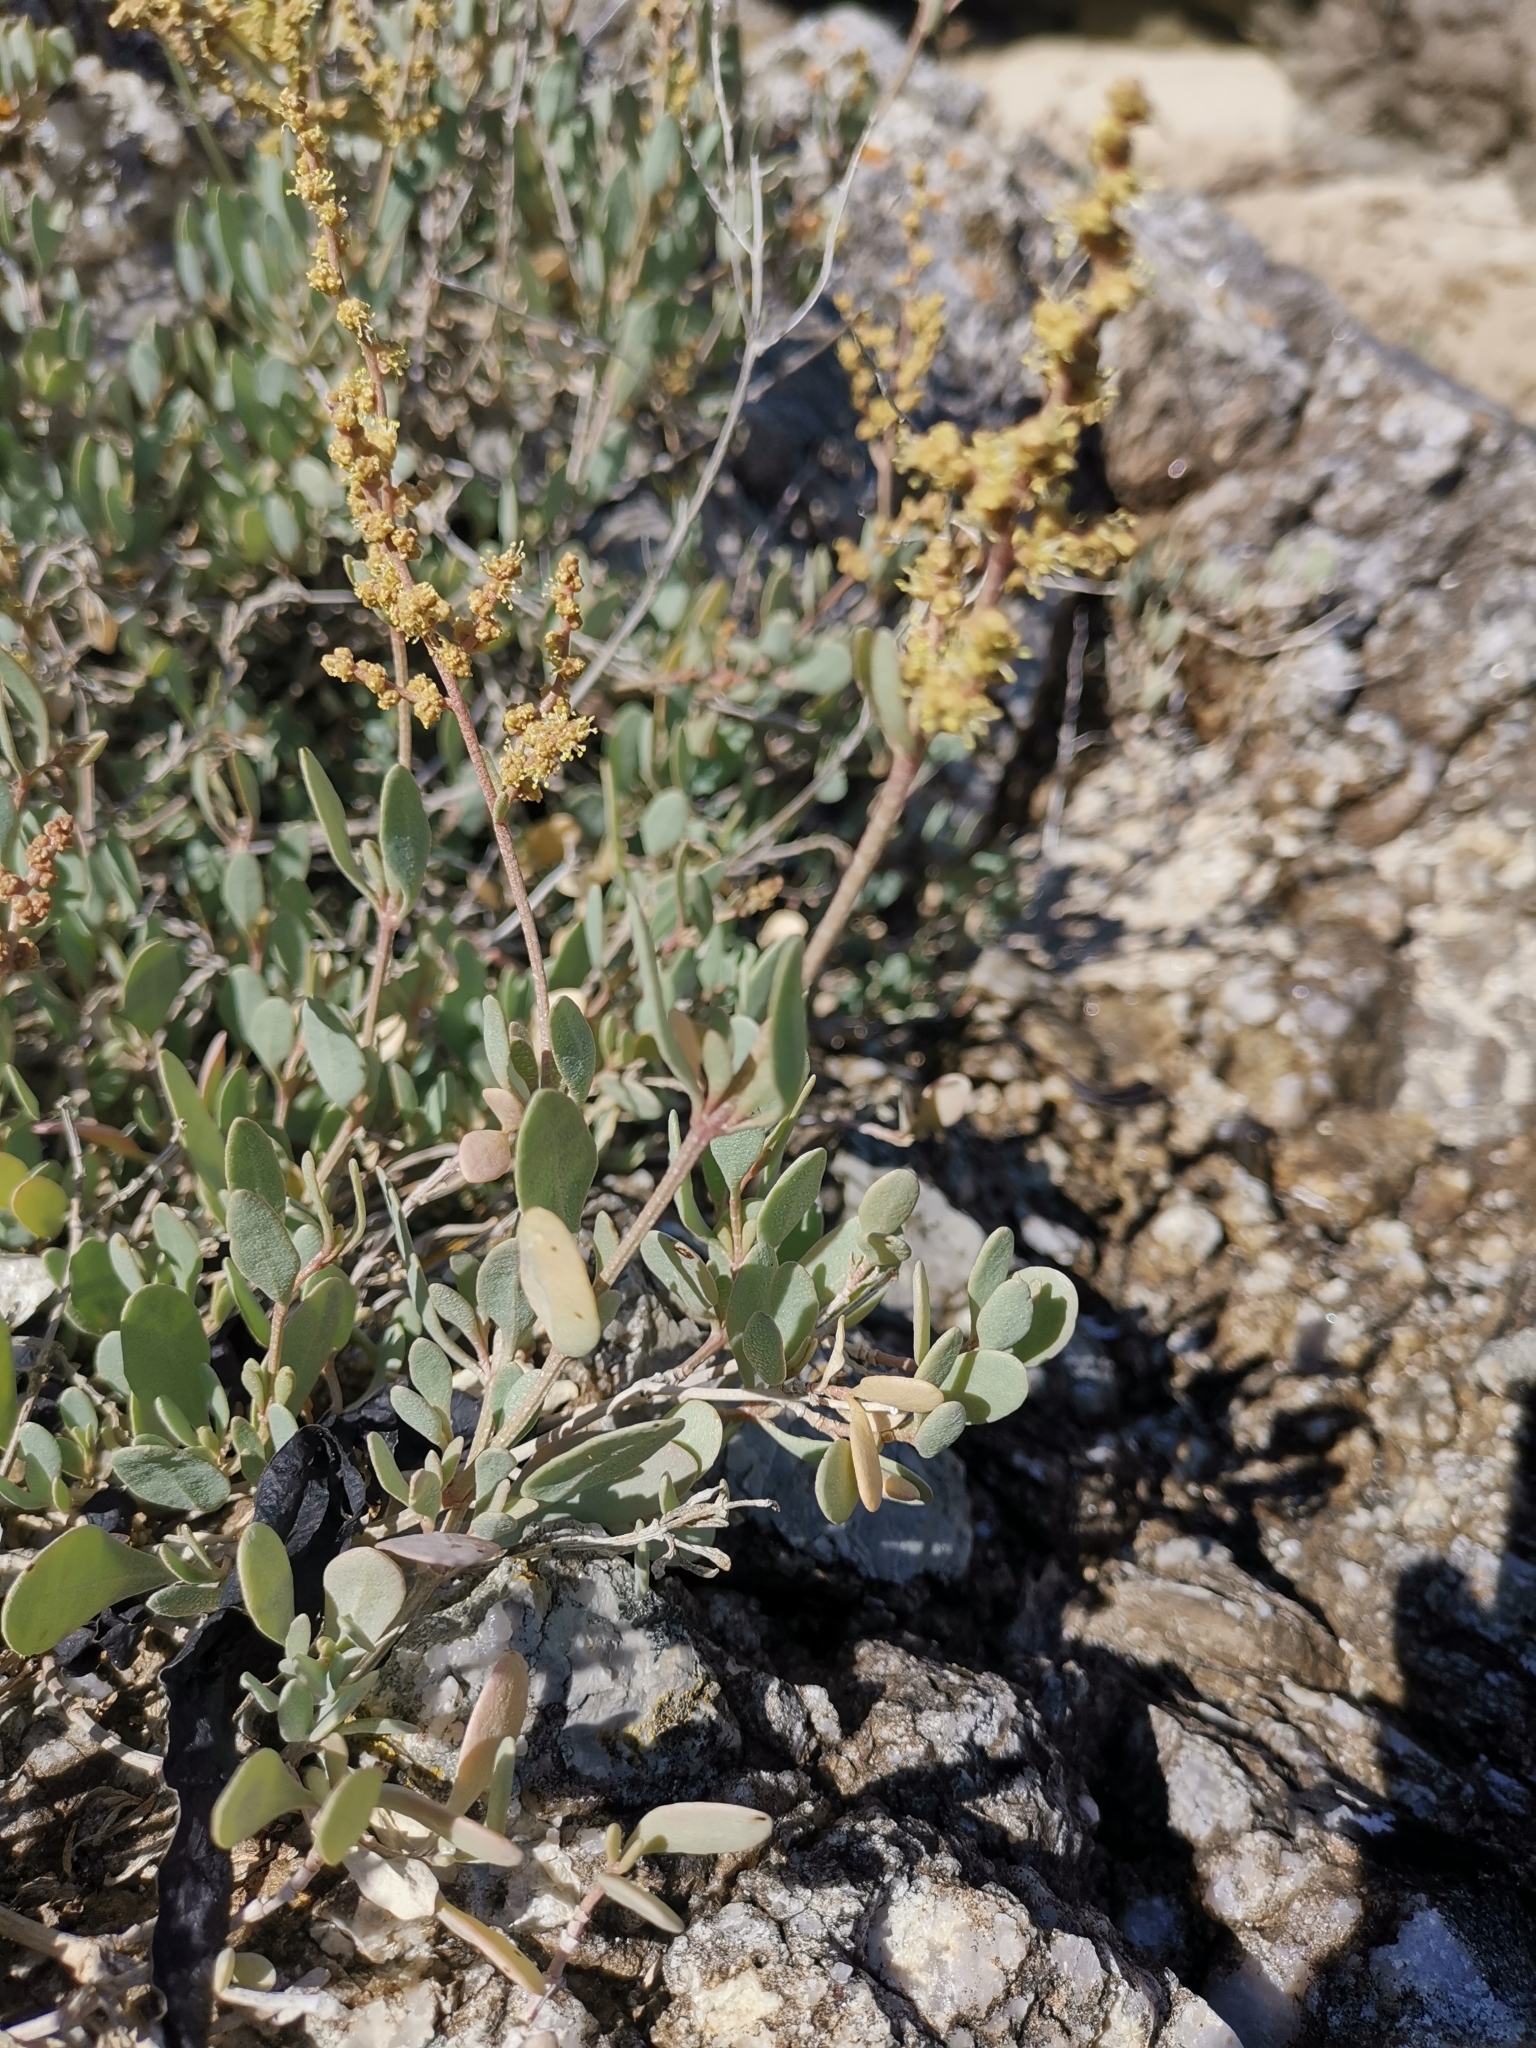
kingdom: Plantae
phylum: Tracheophyta
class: Magnoliopsida
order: Caryophyllales
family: Amaranthaceae
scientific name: Amaranthaceae
